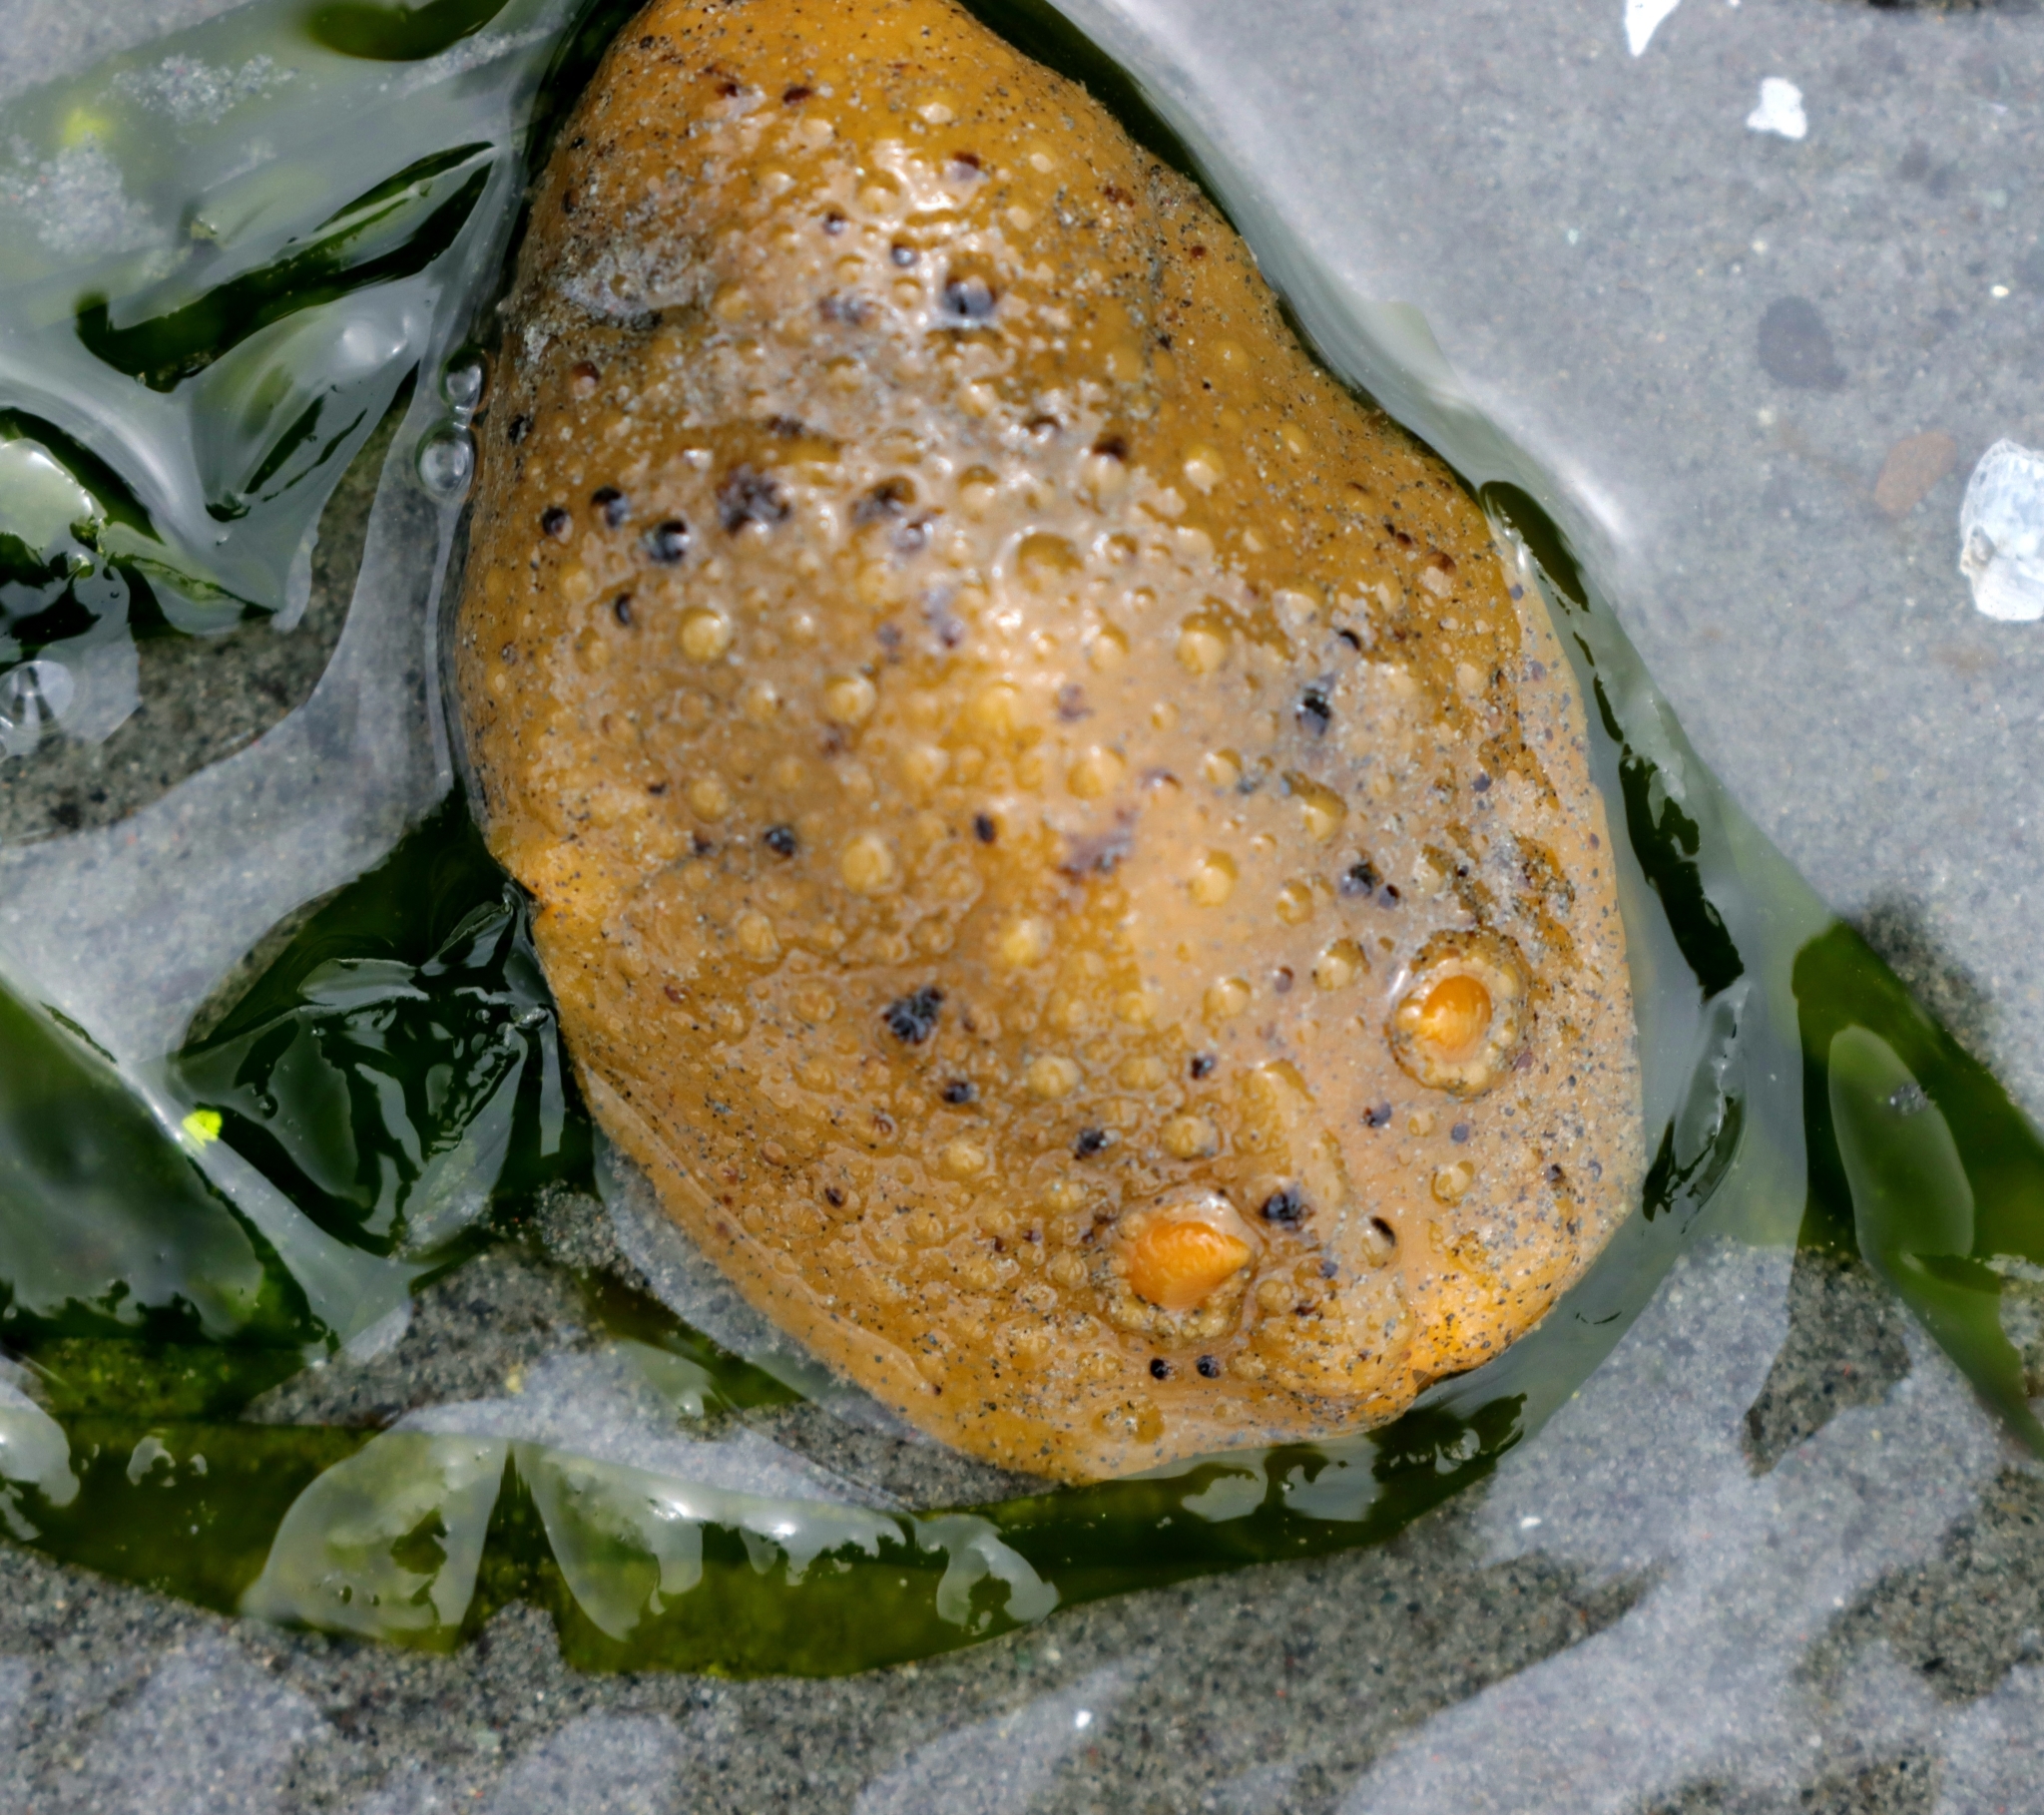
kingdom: Animalia
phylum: Mollusca
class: Gastropoda
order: Nudibranchia
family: Dorididae
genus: Doris
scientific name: Doris montereyensis
